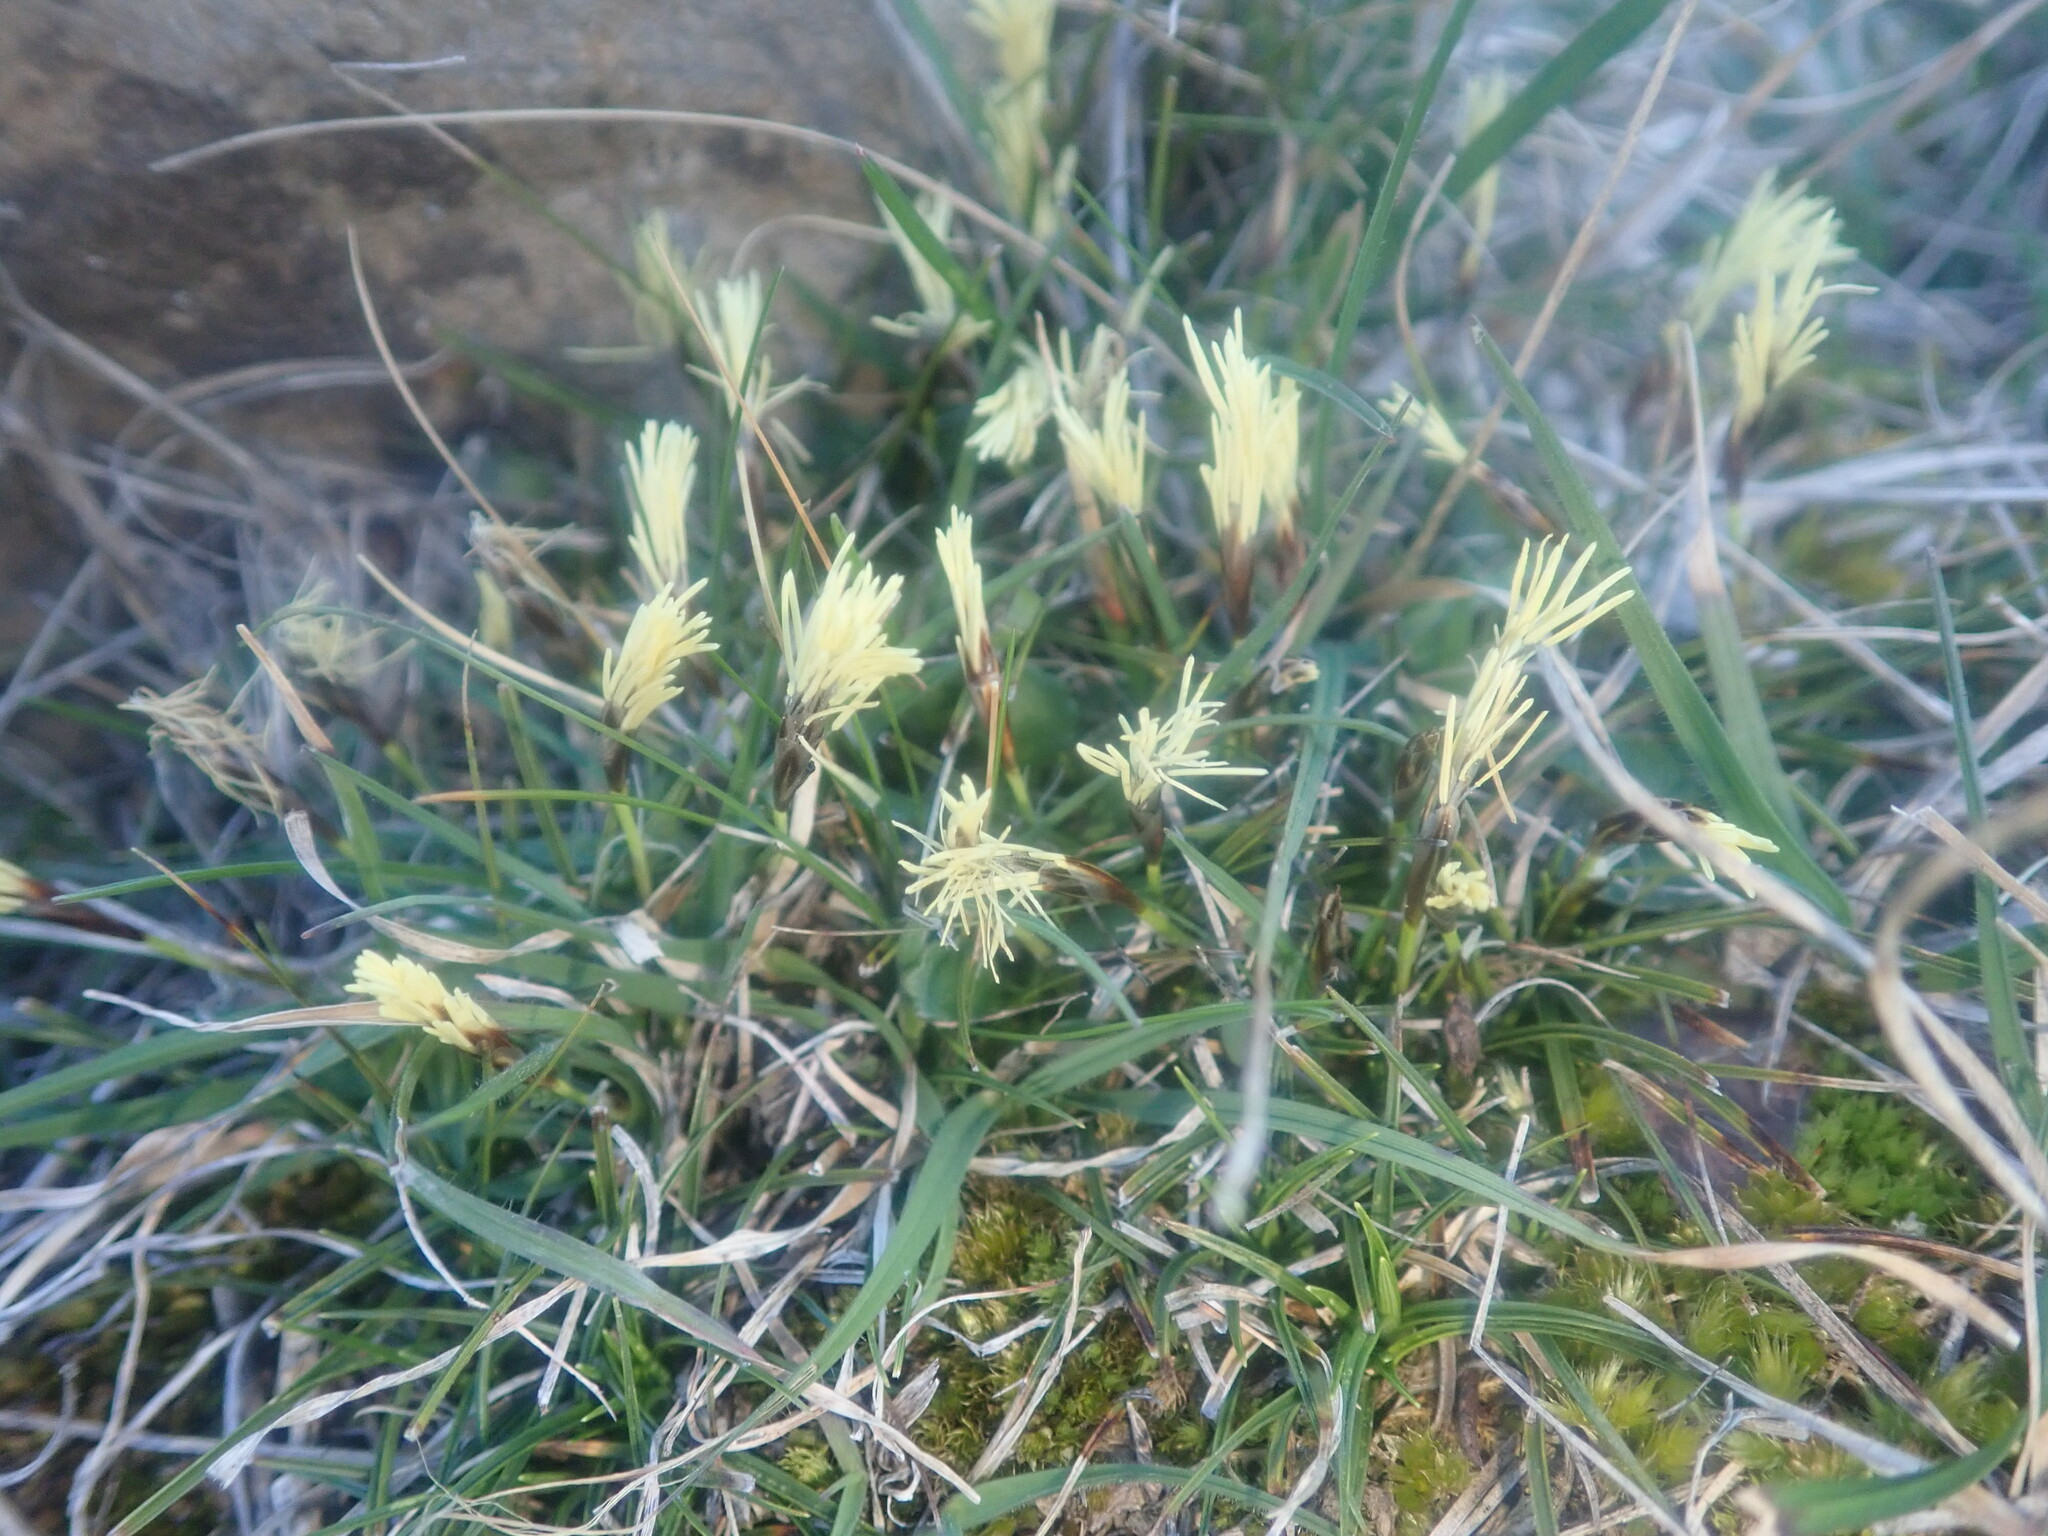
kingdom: Plantae
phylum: Tracheophyta
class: Liliopsida
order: Poales
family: Cyperaceae
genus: Carex
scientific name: Carex humilis
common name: Dwarf sedge
